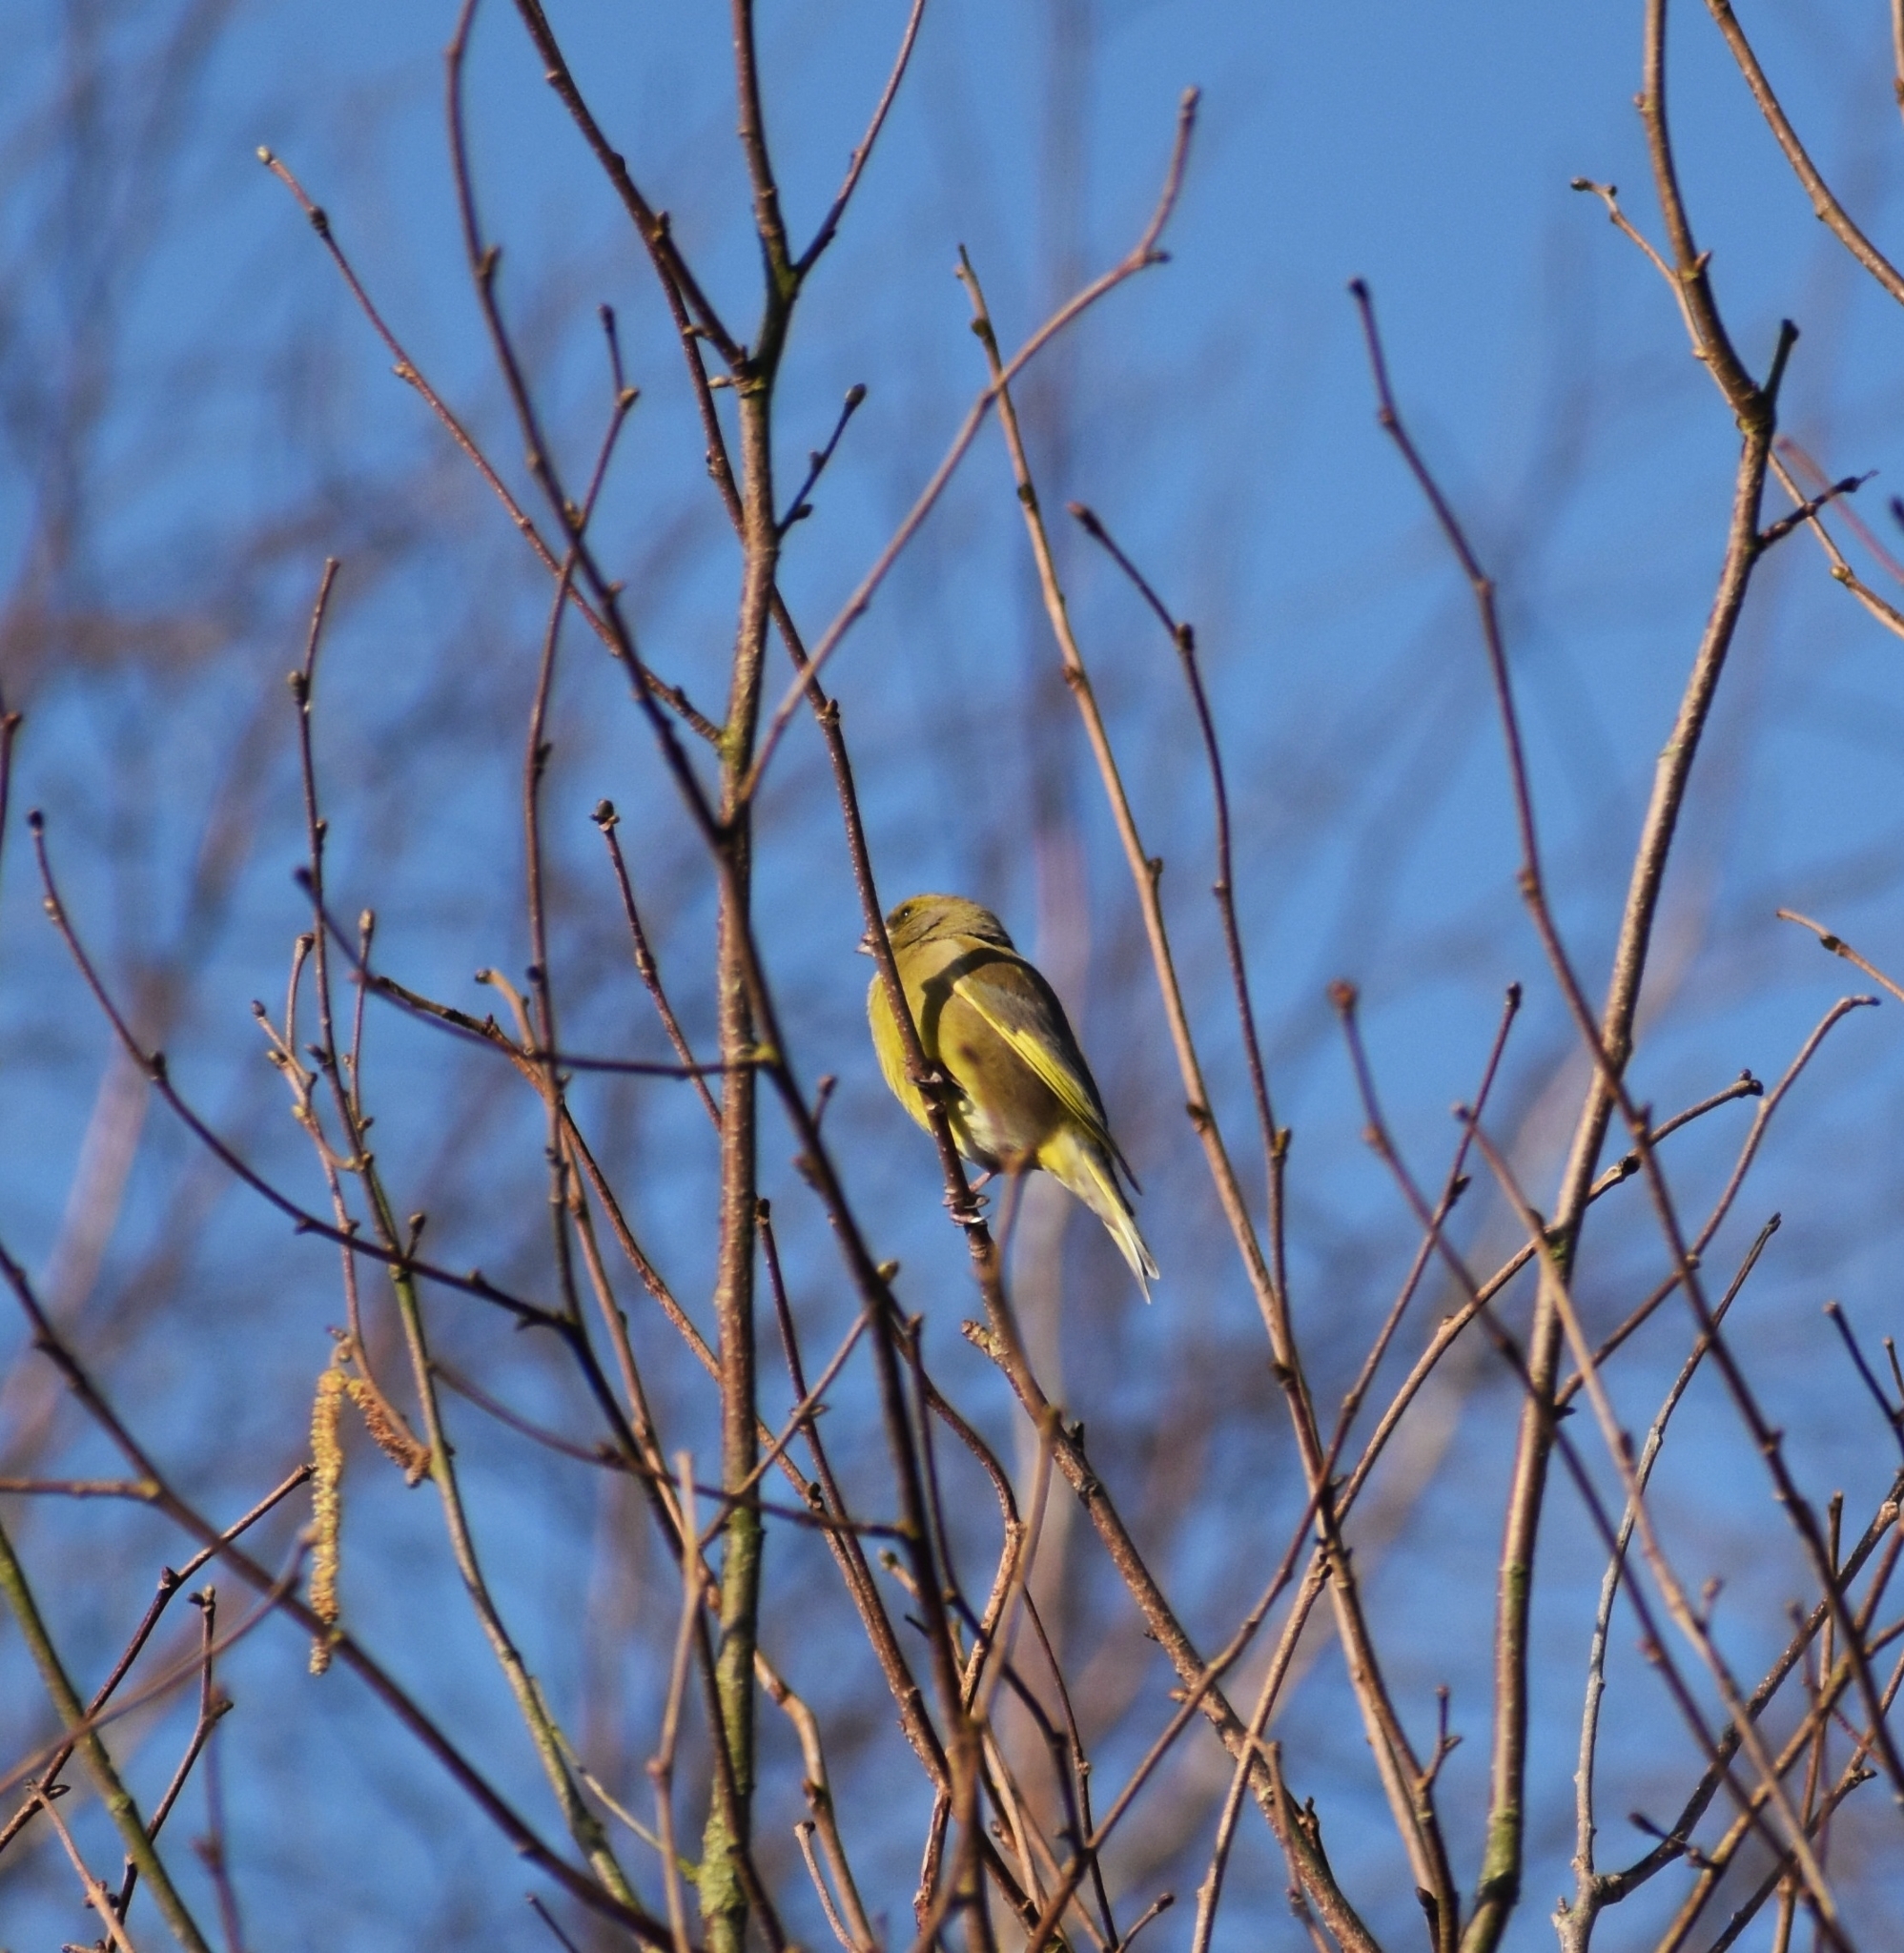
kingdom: Plantae
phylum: Tracheophyta
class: Liliopsida
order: Poales
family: Poaceae
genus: Chloris
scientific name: Chloris chloris
